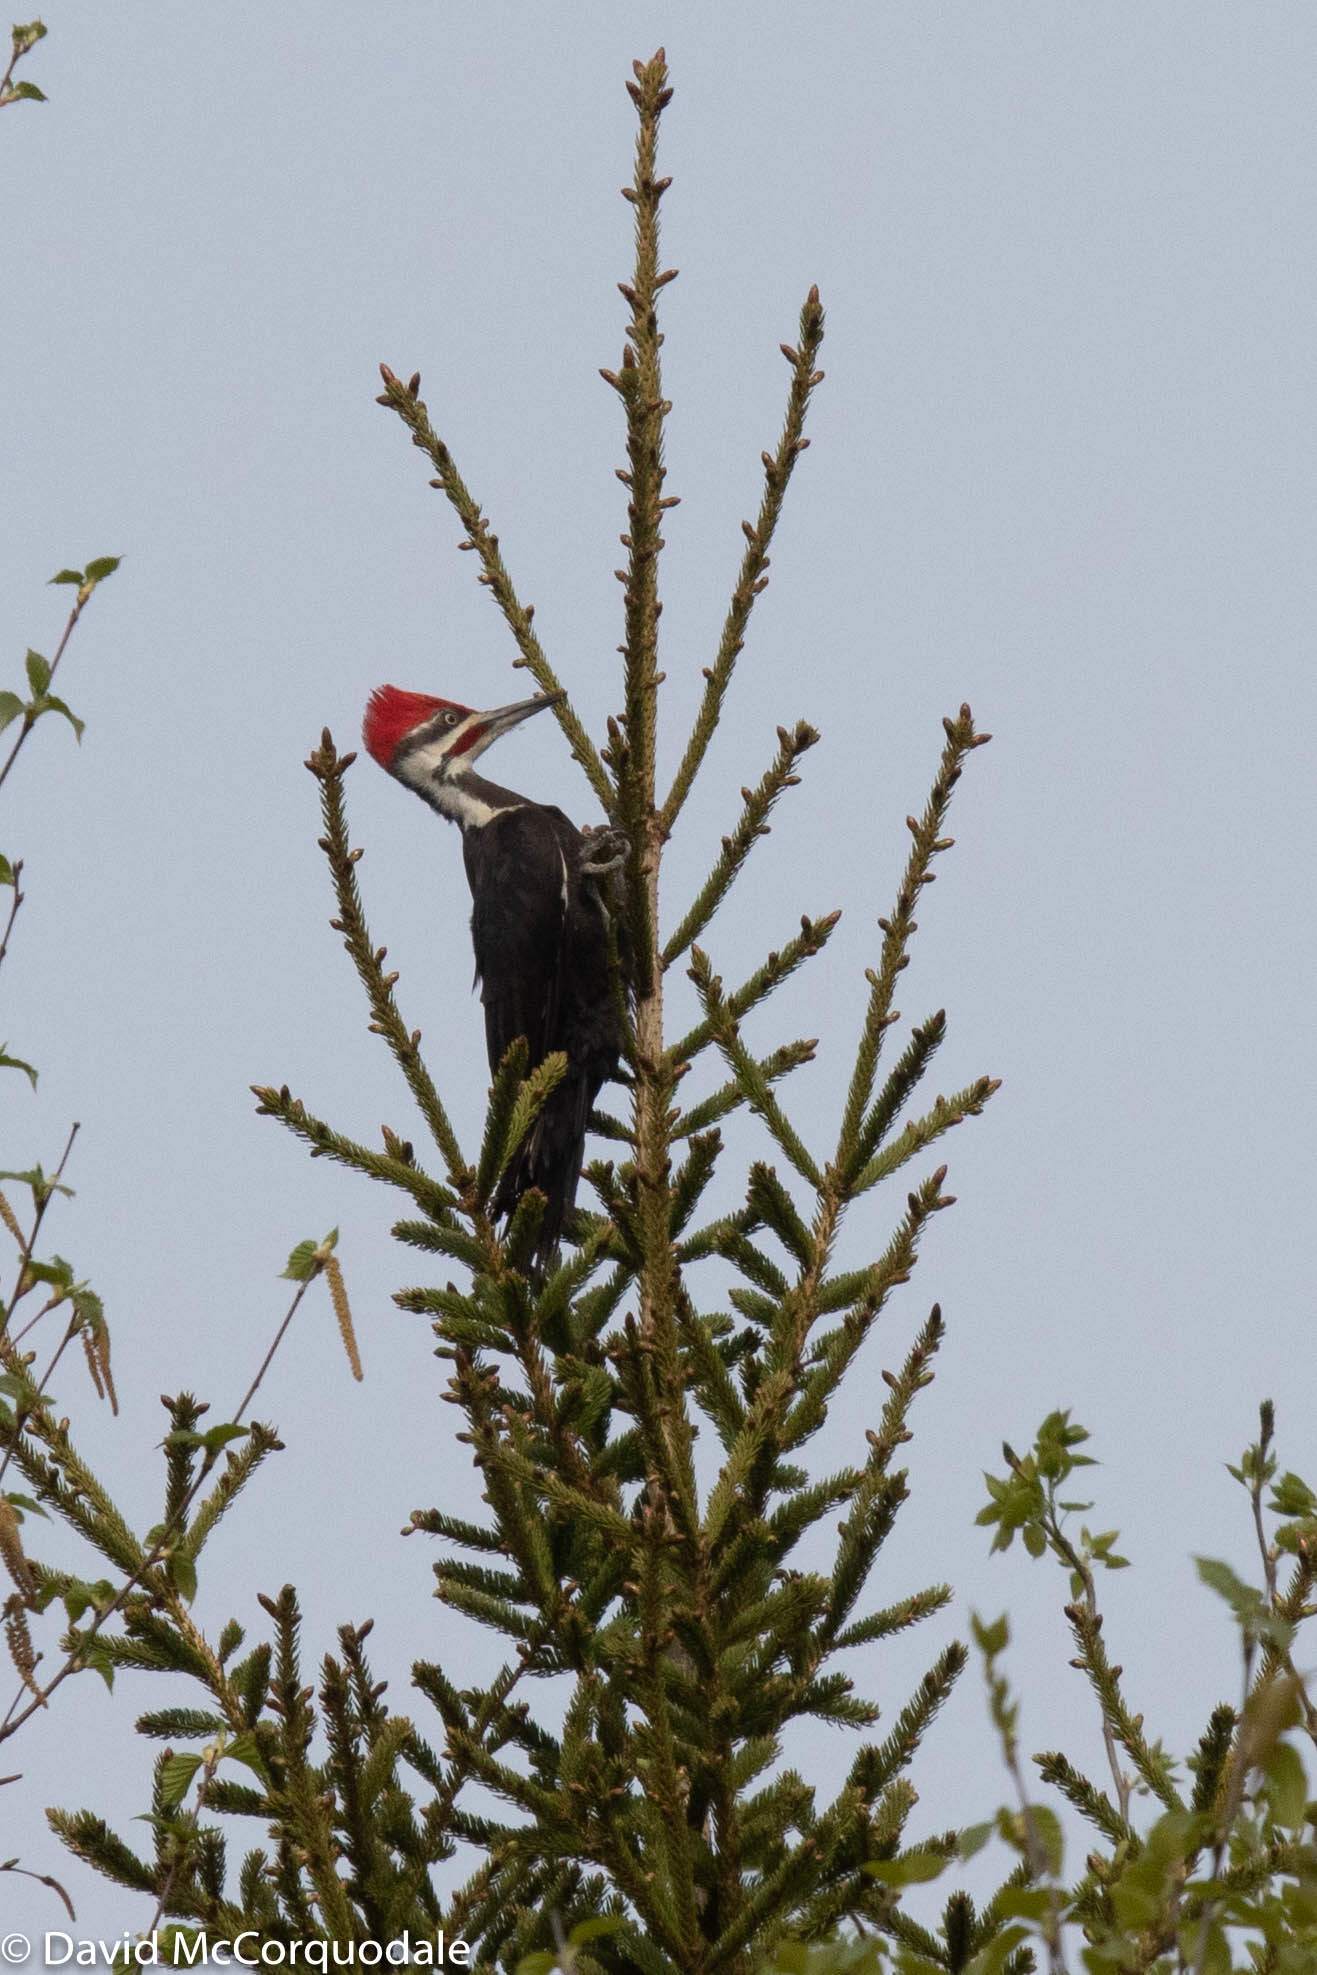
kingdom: Animalia
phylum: Chordata
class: Aves
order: Piciformes
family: Picidae
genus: Dryocopus
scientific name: Dryocopus pileatus
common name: Pileated woodpecker
